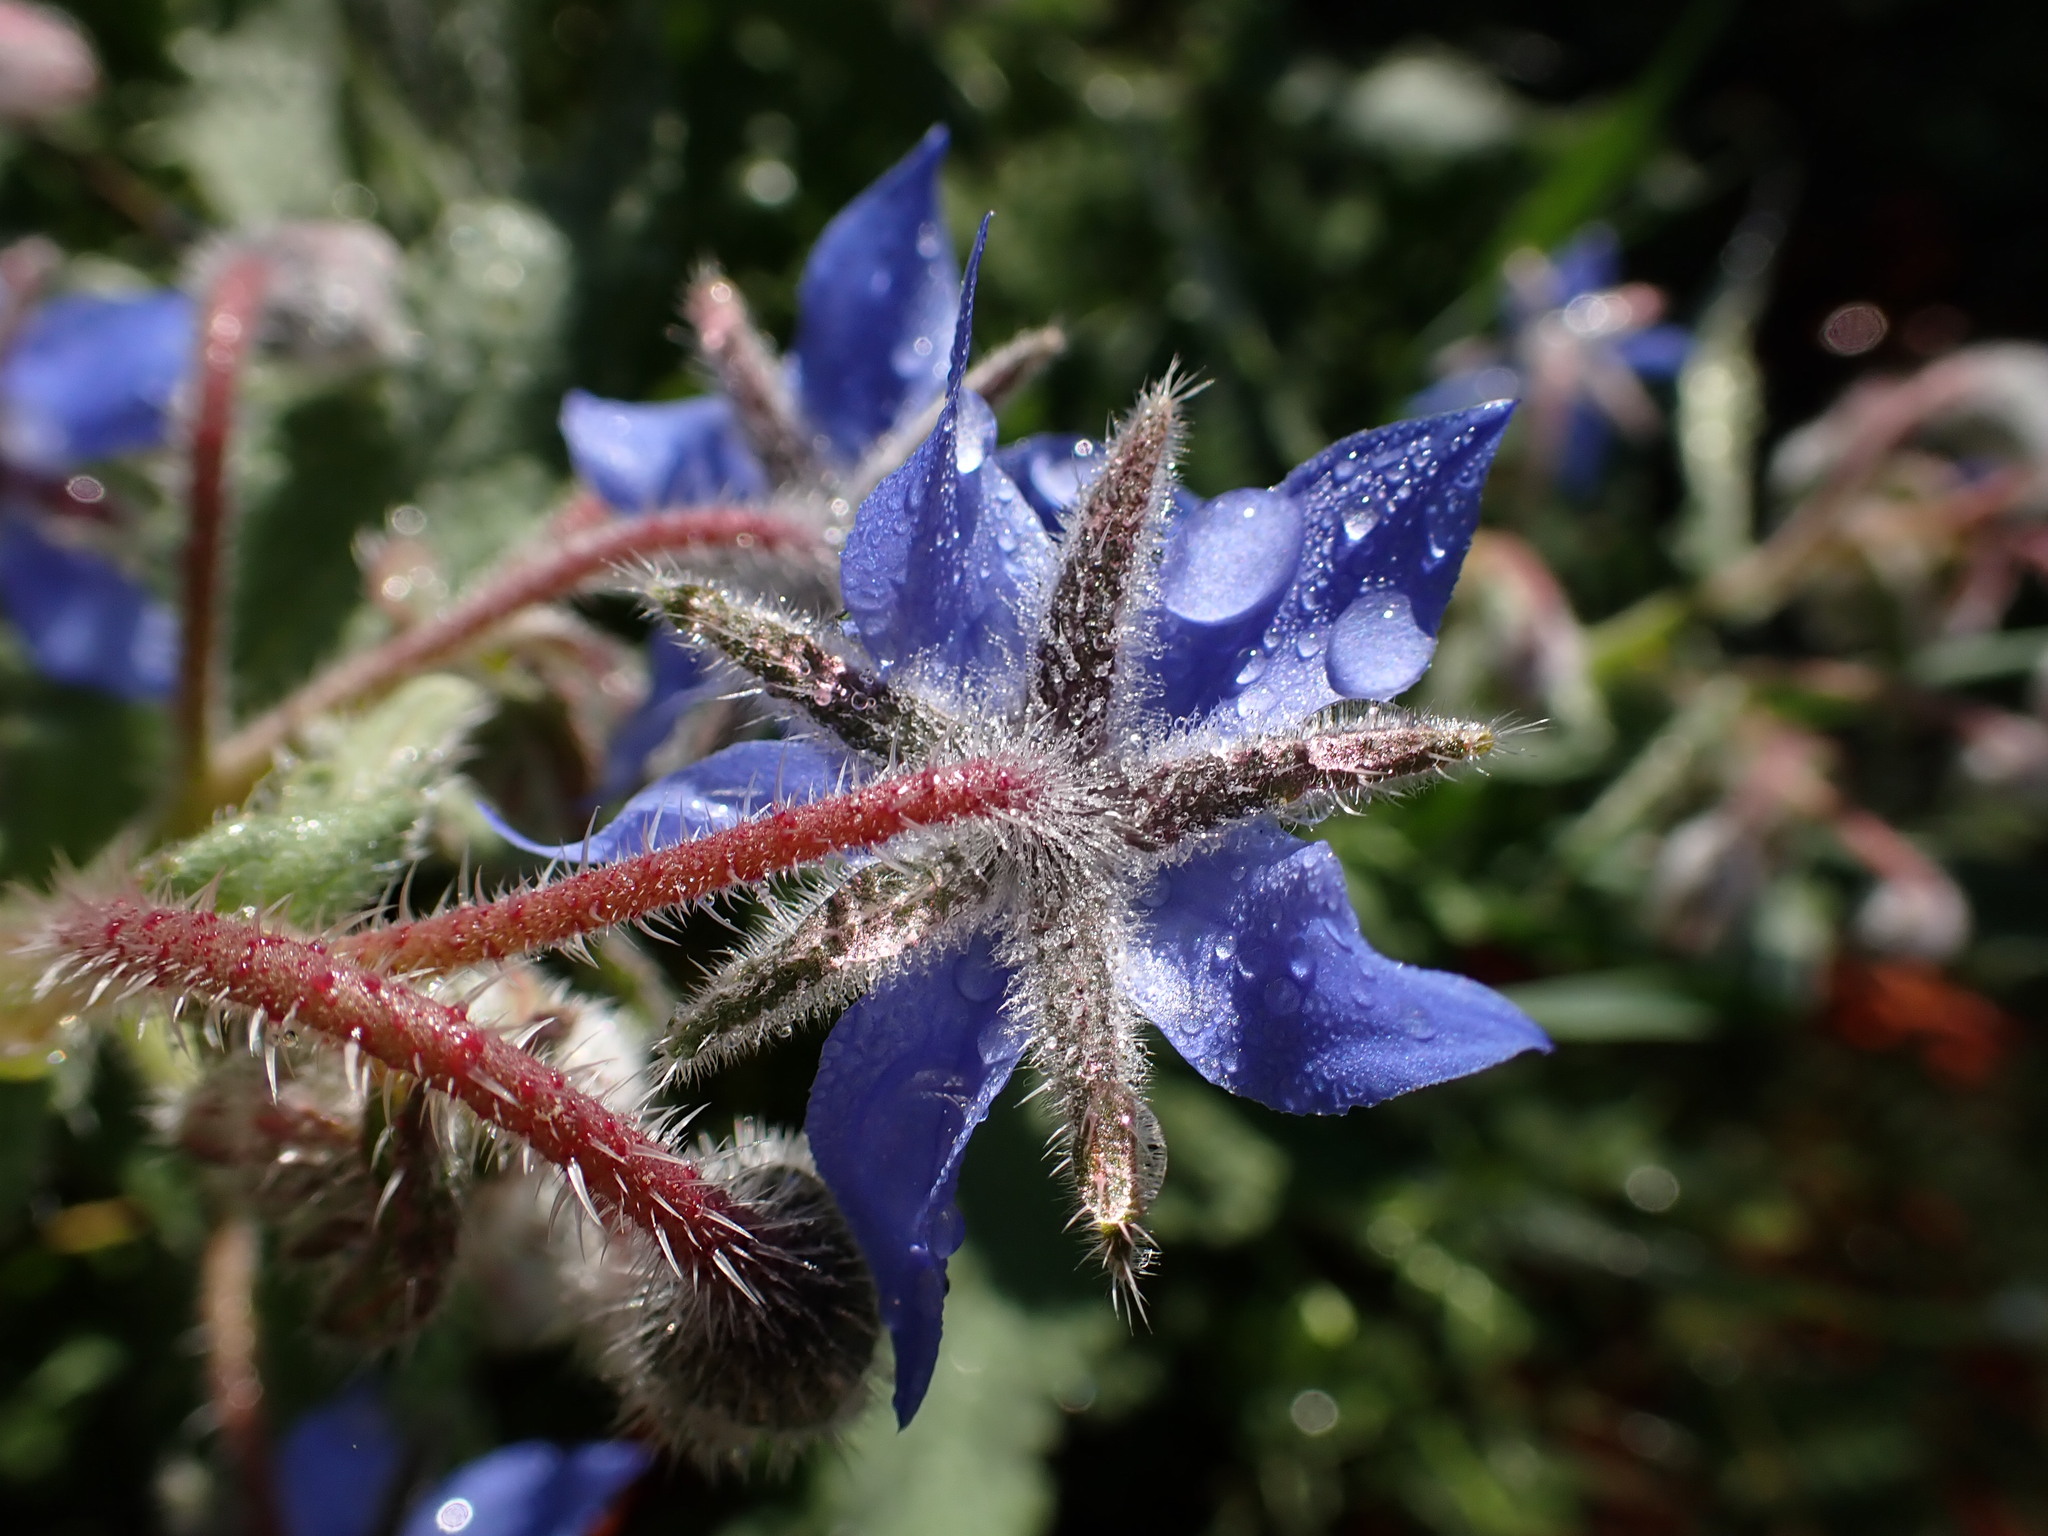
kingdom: Plantae
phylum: Tracheophyta
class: Magnoliopsida
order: Boraginales
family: Boraginaceae
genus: Borago
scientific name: Borago officinalis
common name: Borage
